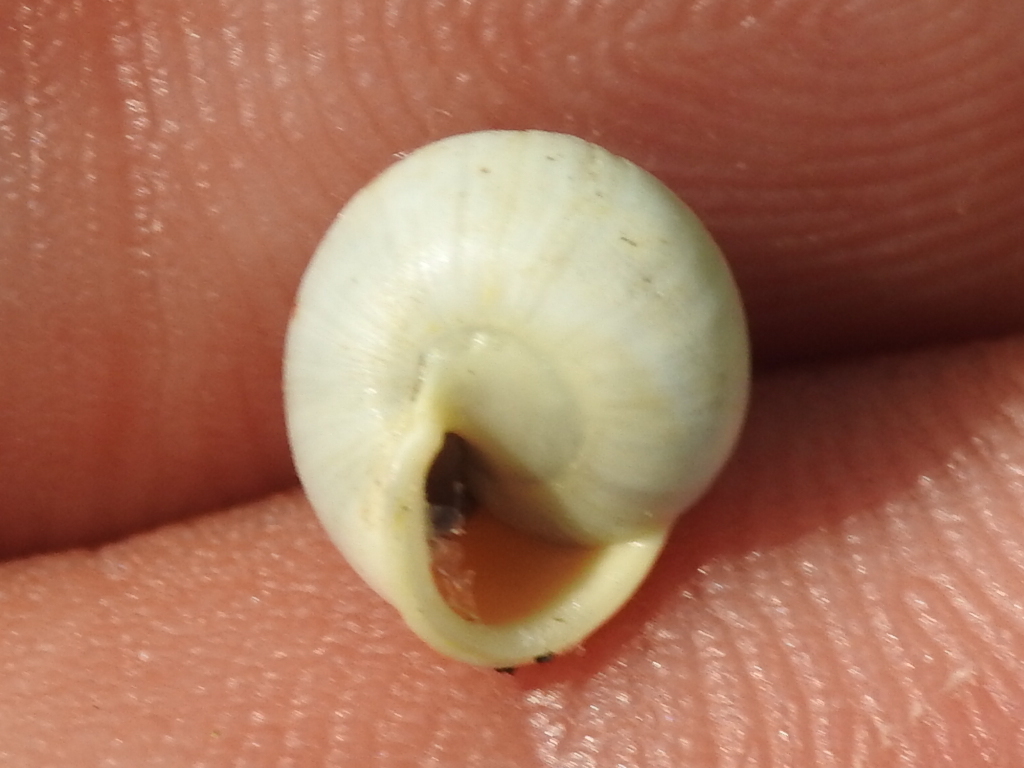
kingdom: Animalia
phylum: Mollusca
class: Gastropoda
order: Cycloneritida
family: Helicinidae
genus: Helicina
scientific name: Helicina orbiculata
